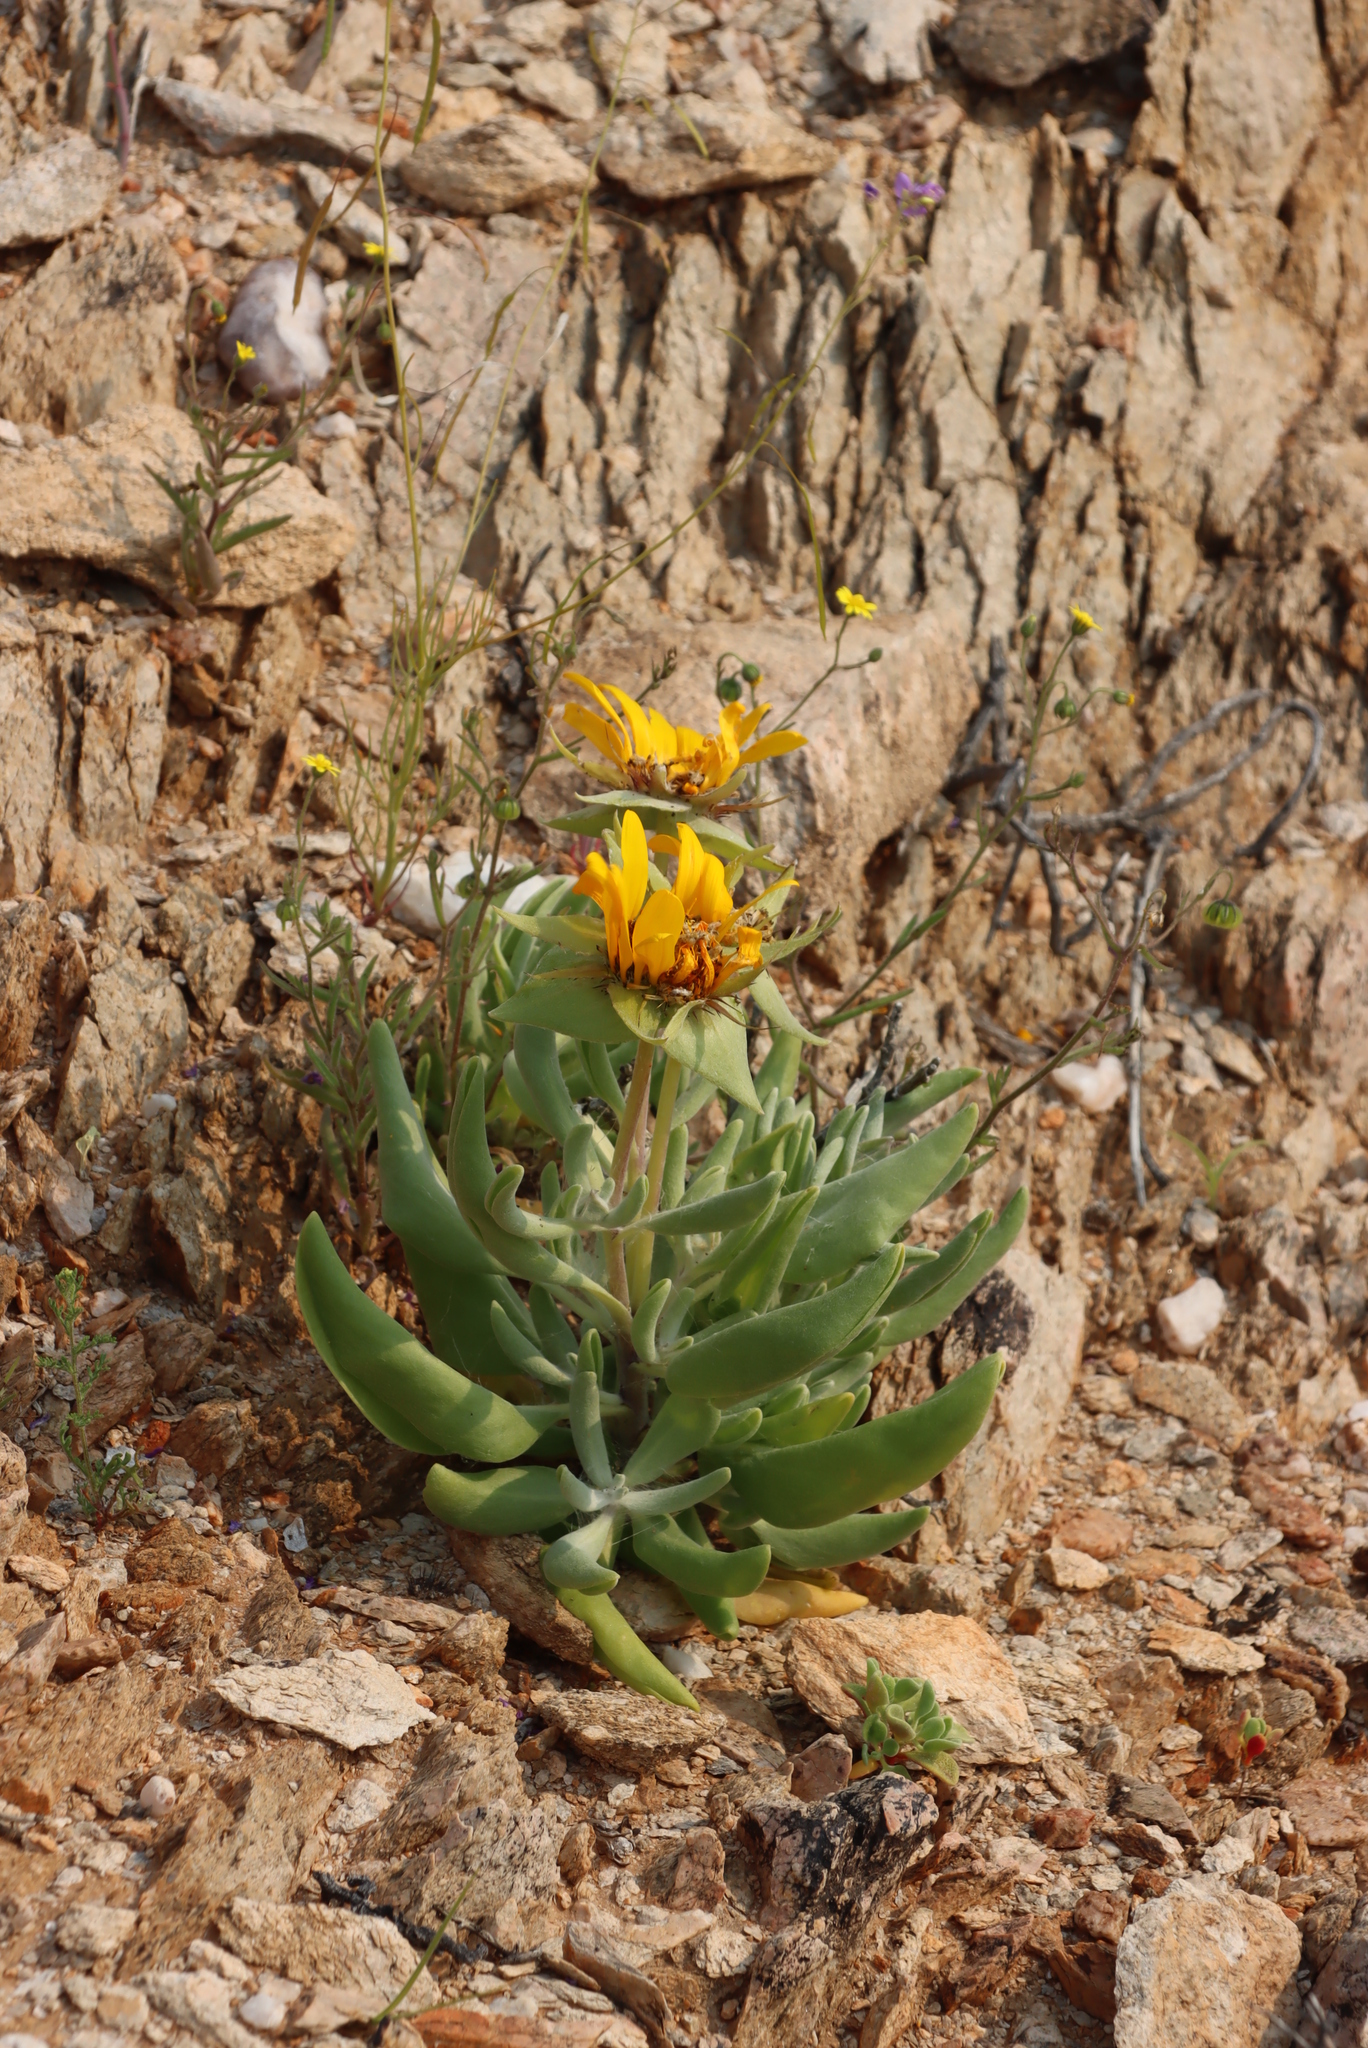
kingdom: Plantae
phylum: Tracheophyta
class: Magnoliopsida
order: Asterales
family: Asteraceae
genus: Didelta
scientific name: Didelta carnosa
